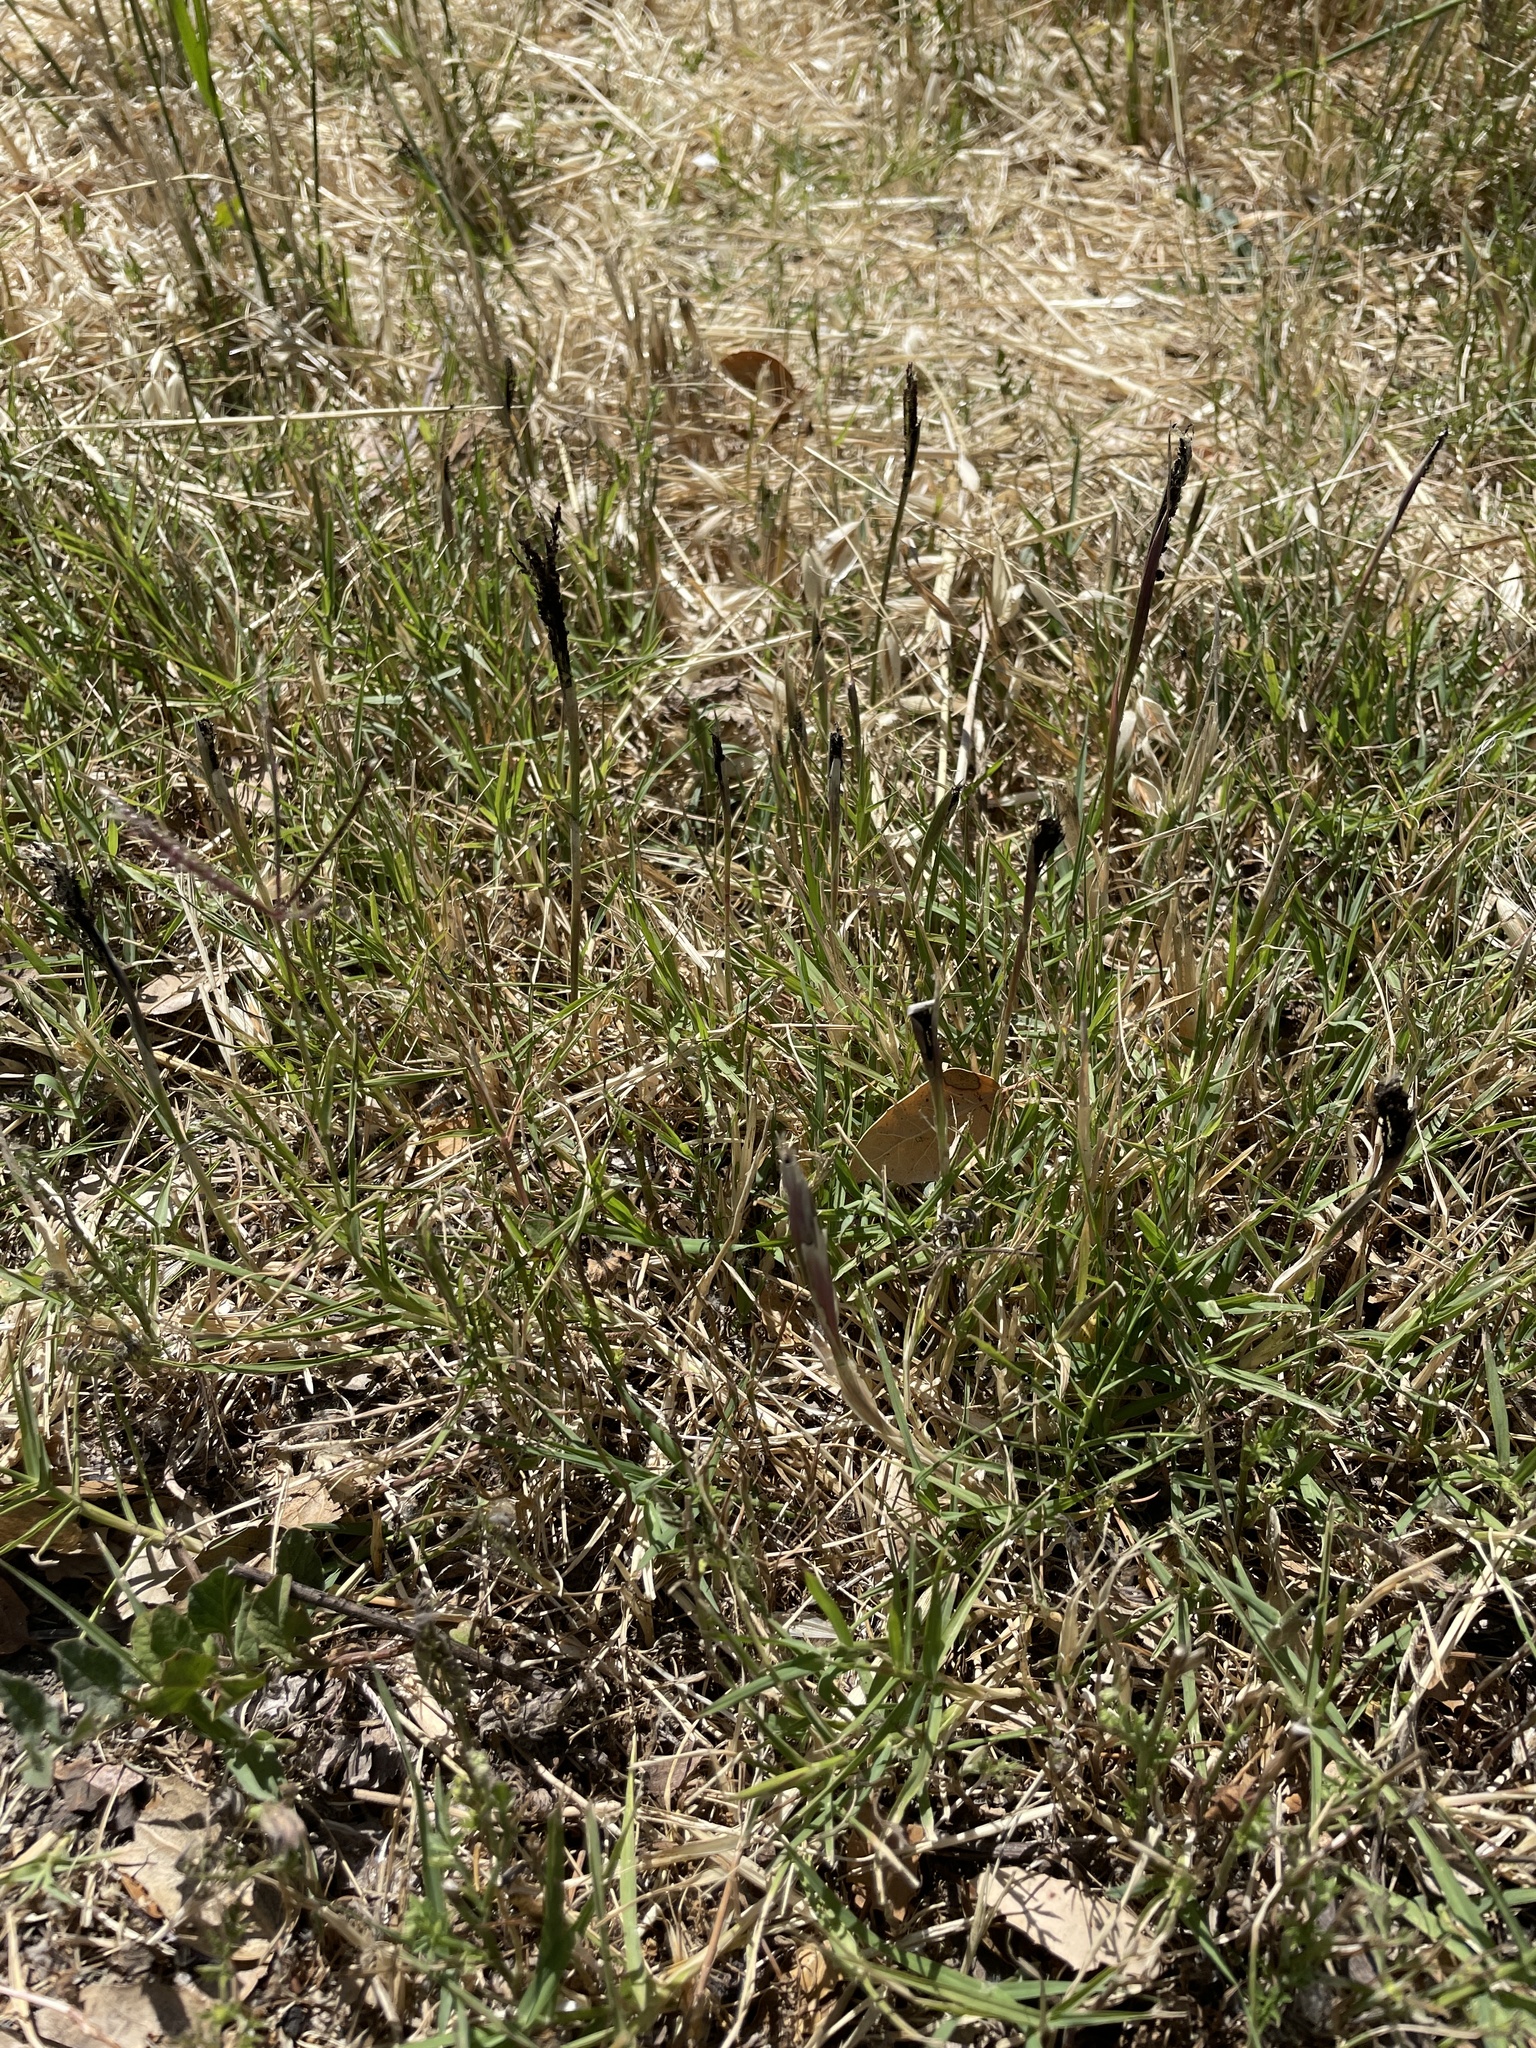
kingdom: Fungi
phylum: Basidiomycota
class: Ustilaginomycetes
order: Ustilaginales
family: Ustilaginaceae
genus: Ustilago
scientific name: Ustilago cynodontis
